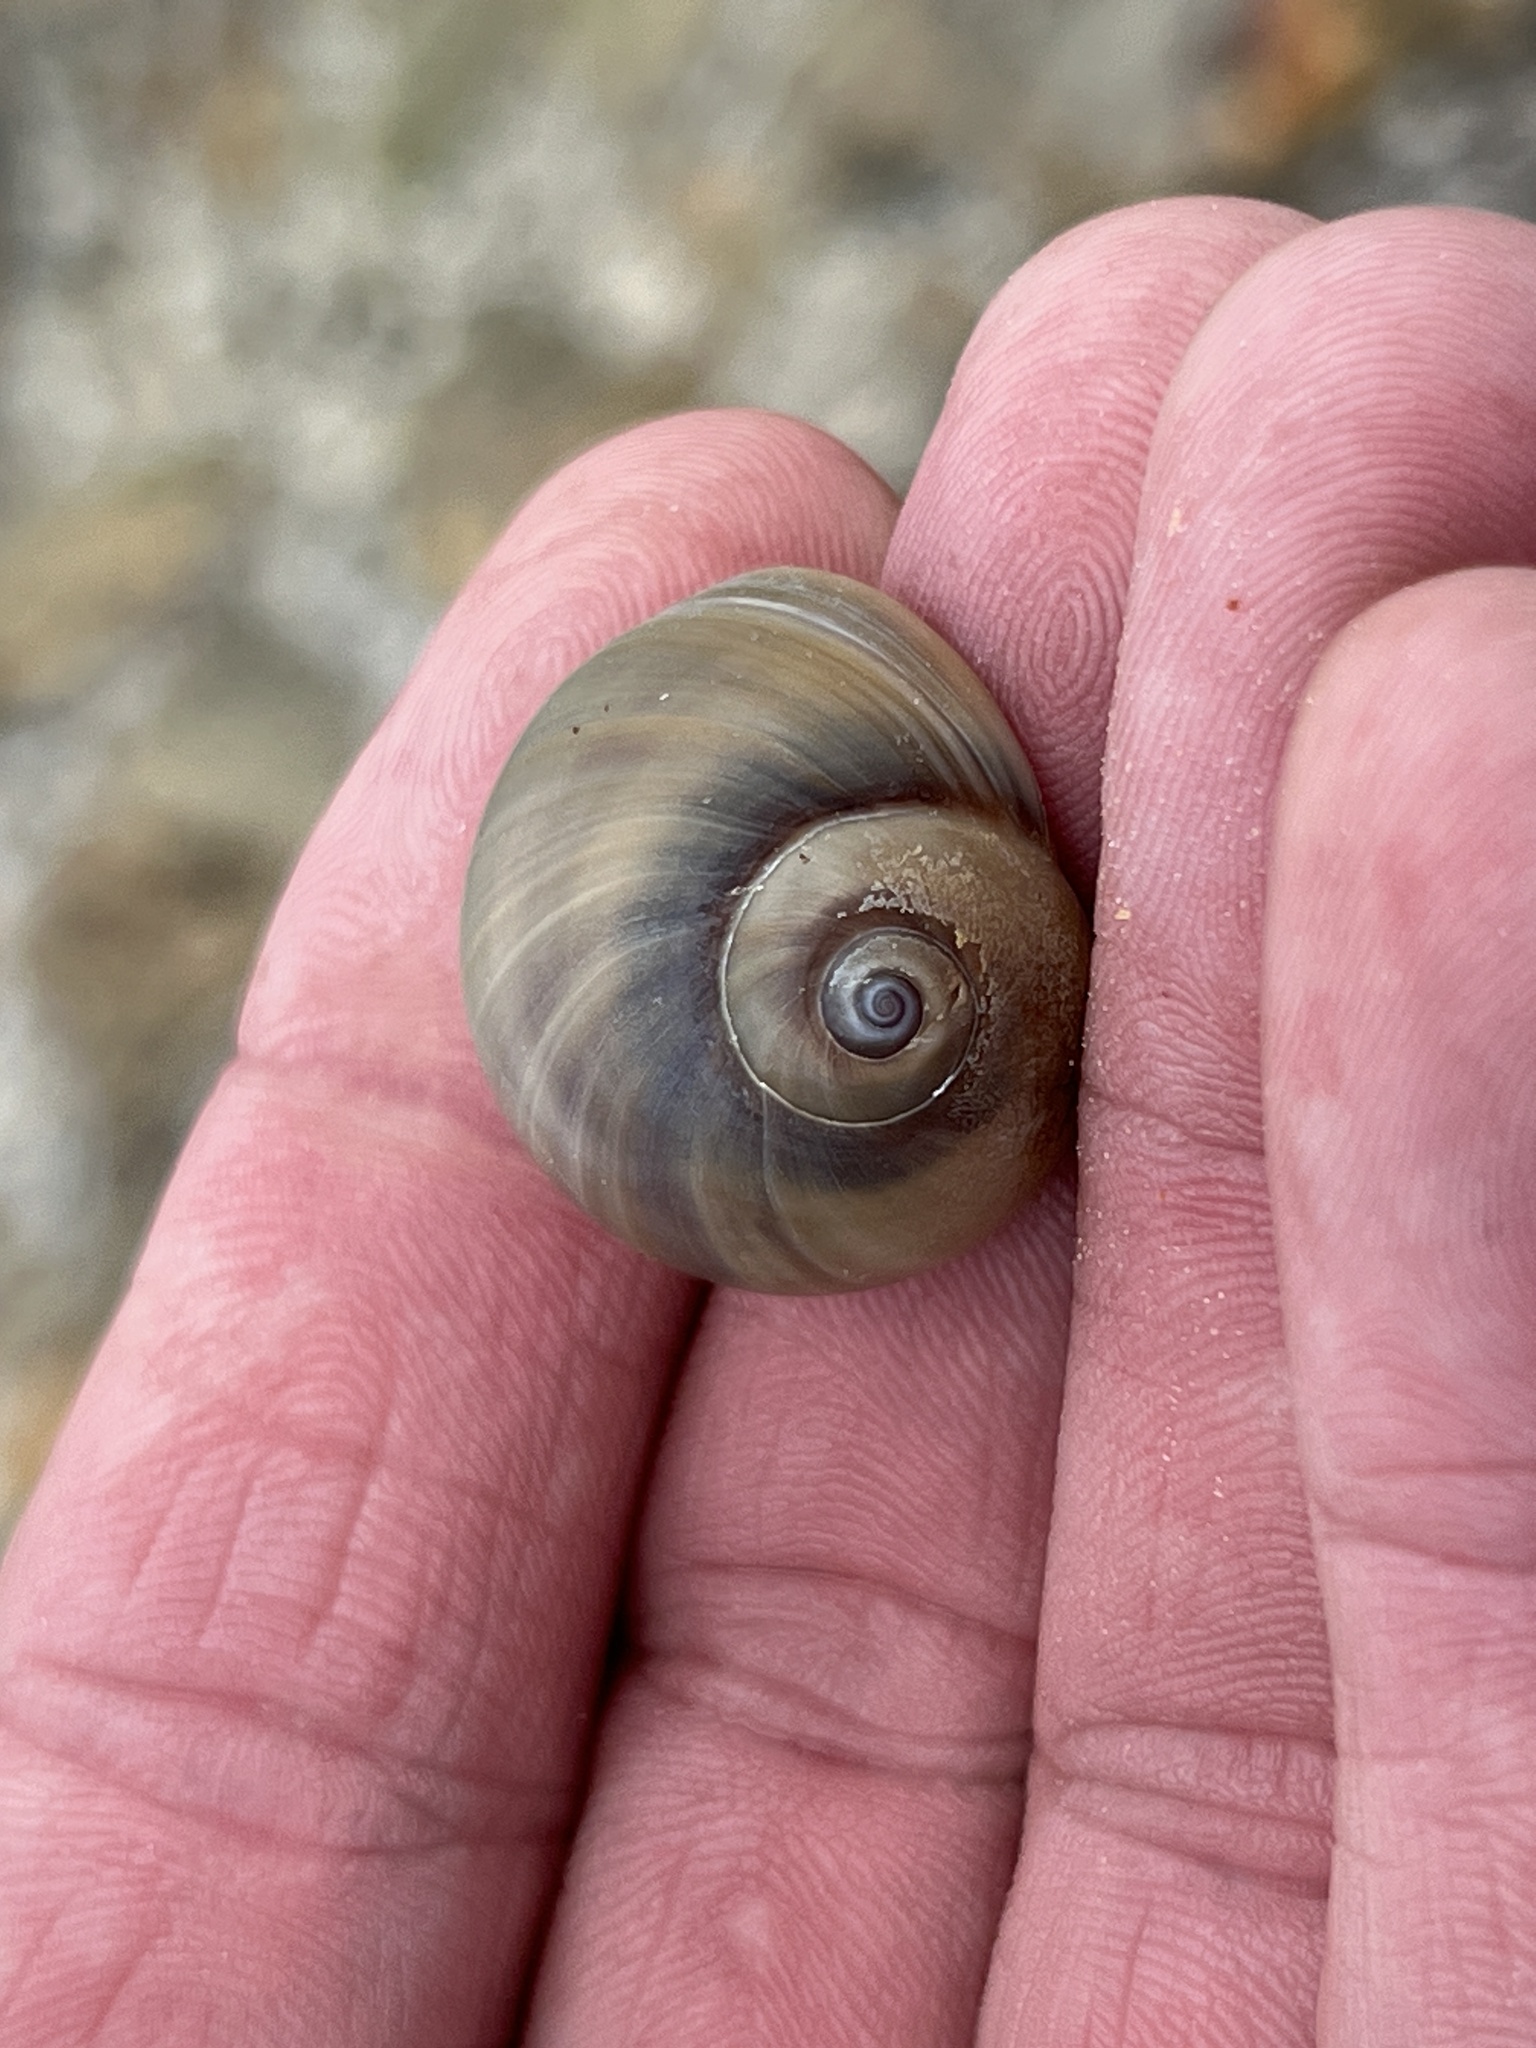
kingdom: Animalia
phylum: Mollusca
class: Gastropoda
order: Littorinimorpha
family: Naticidae
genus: Neverita
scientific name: Neverita delessertiana
